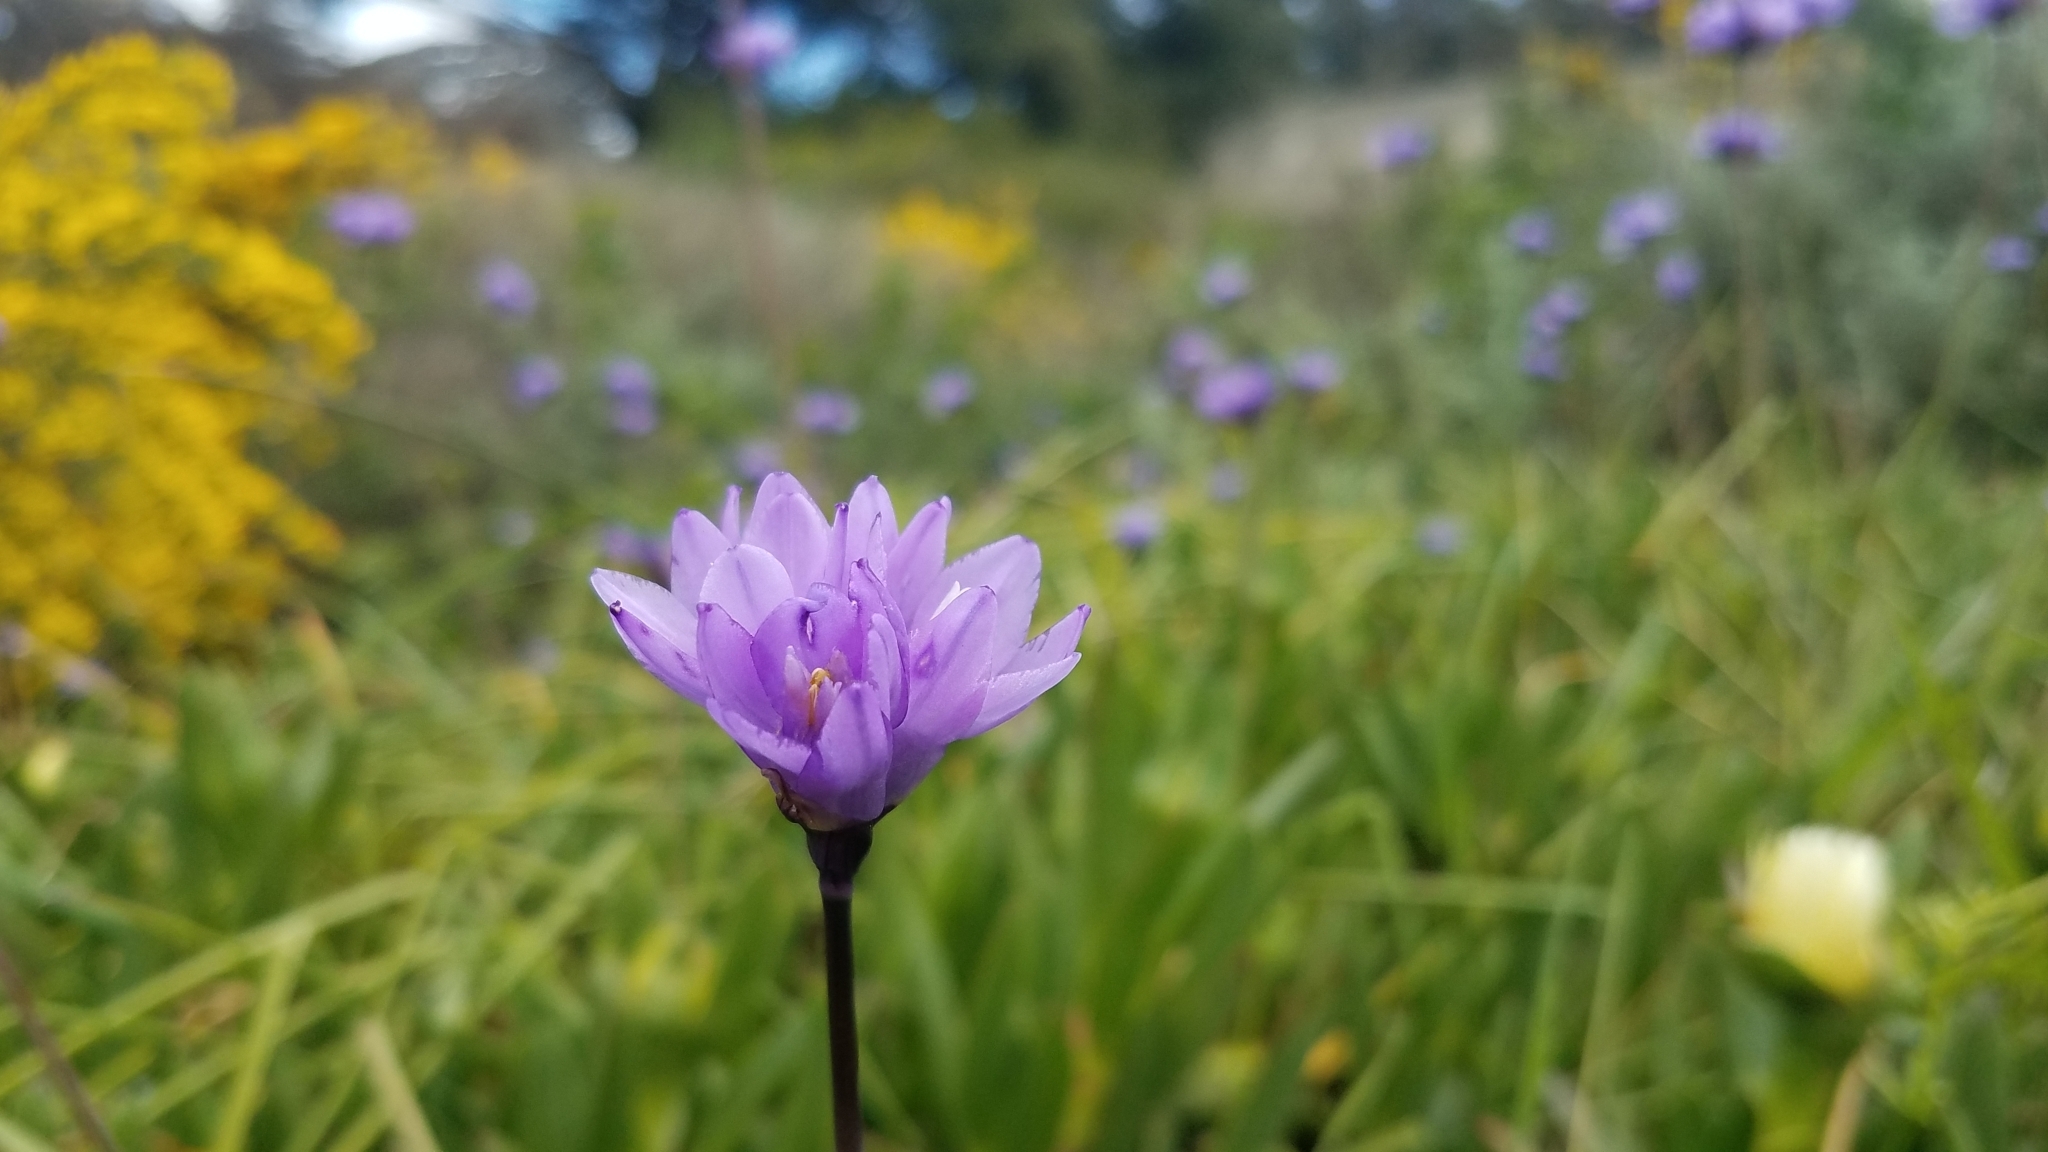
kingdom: Plantae
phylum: Tracheophyta
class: Liliopsida
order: Asparagales
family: Asparagaceae
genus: Dipterostemon
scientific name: Dipterostemon capitatus
